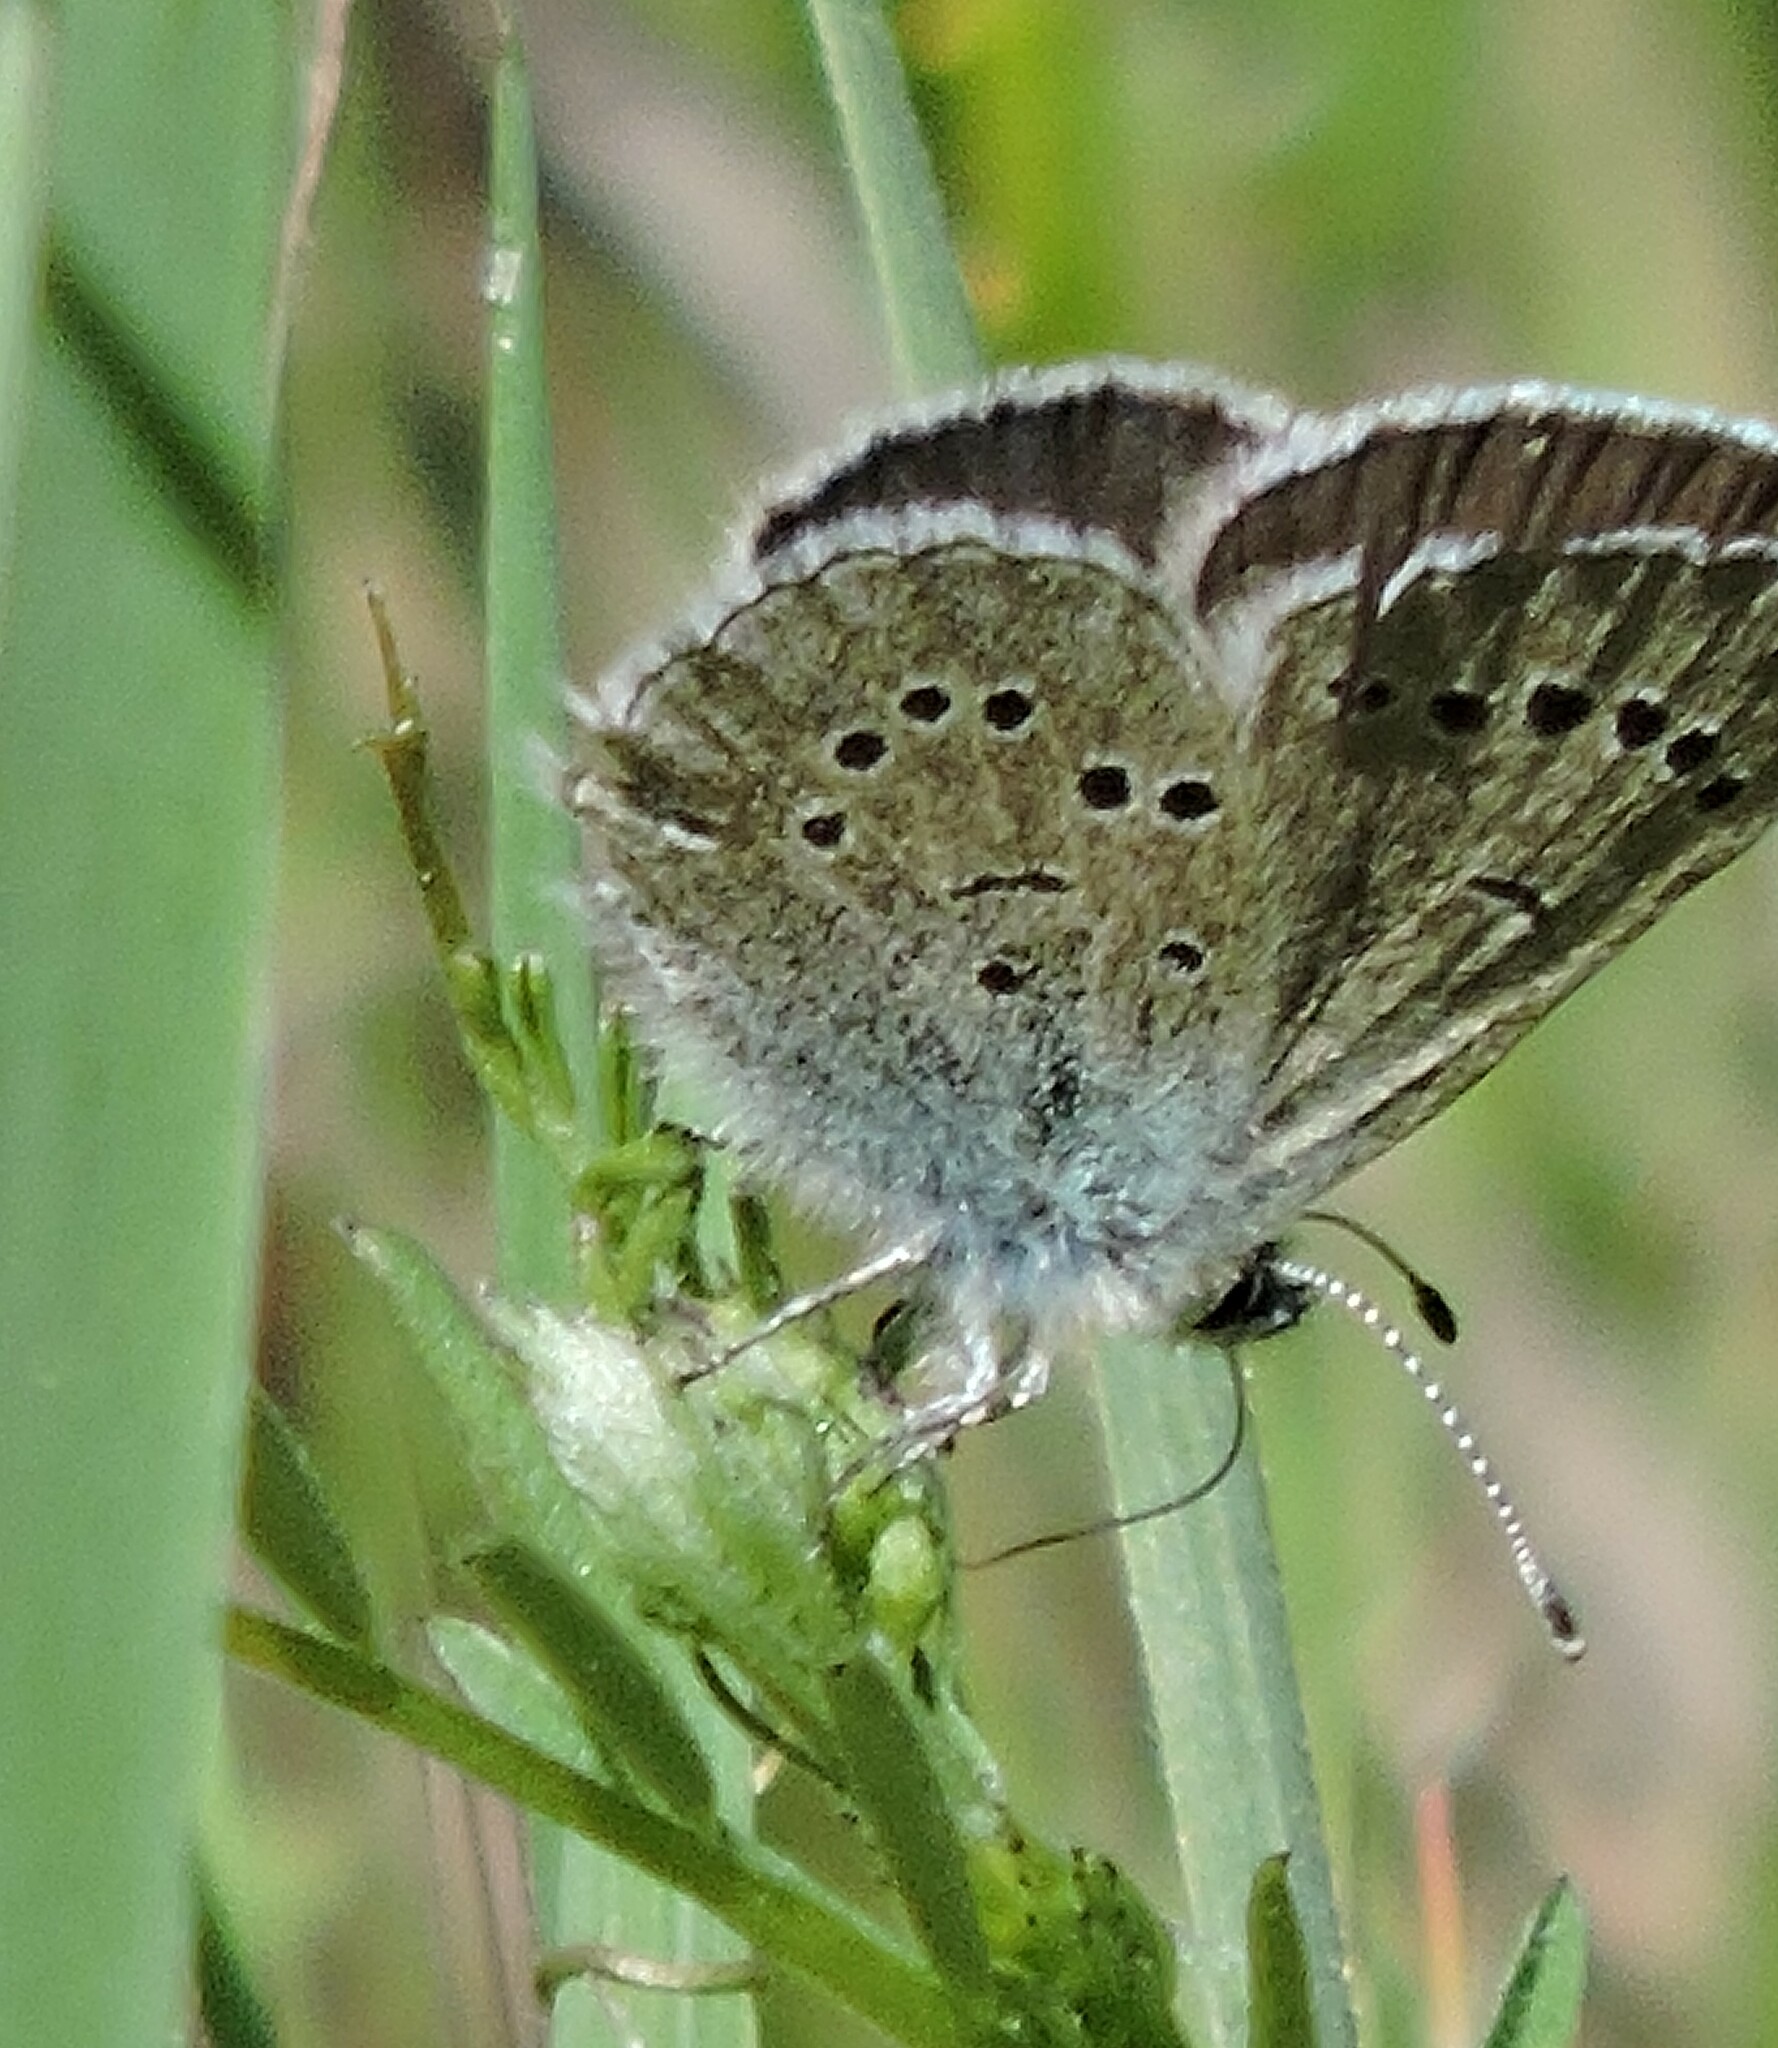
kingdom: Animalia
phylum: Arthropoda
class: Insecta
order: Lepidoptera
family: Lycaenidae
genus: Icaricia
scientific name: Icaricia icarioides
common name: Boisduval's blue
